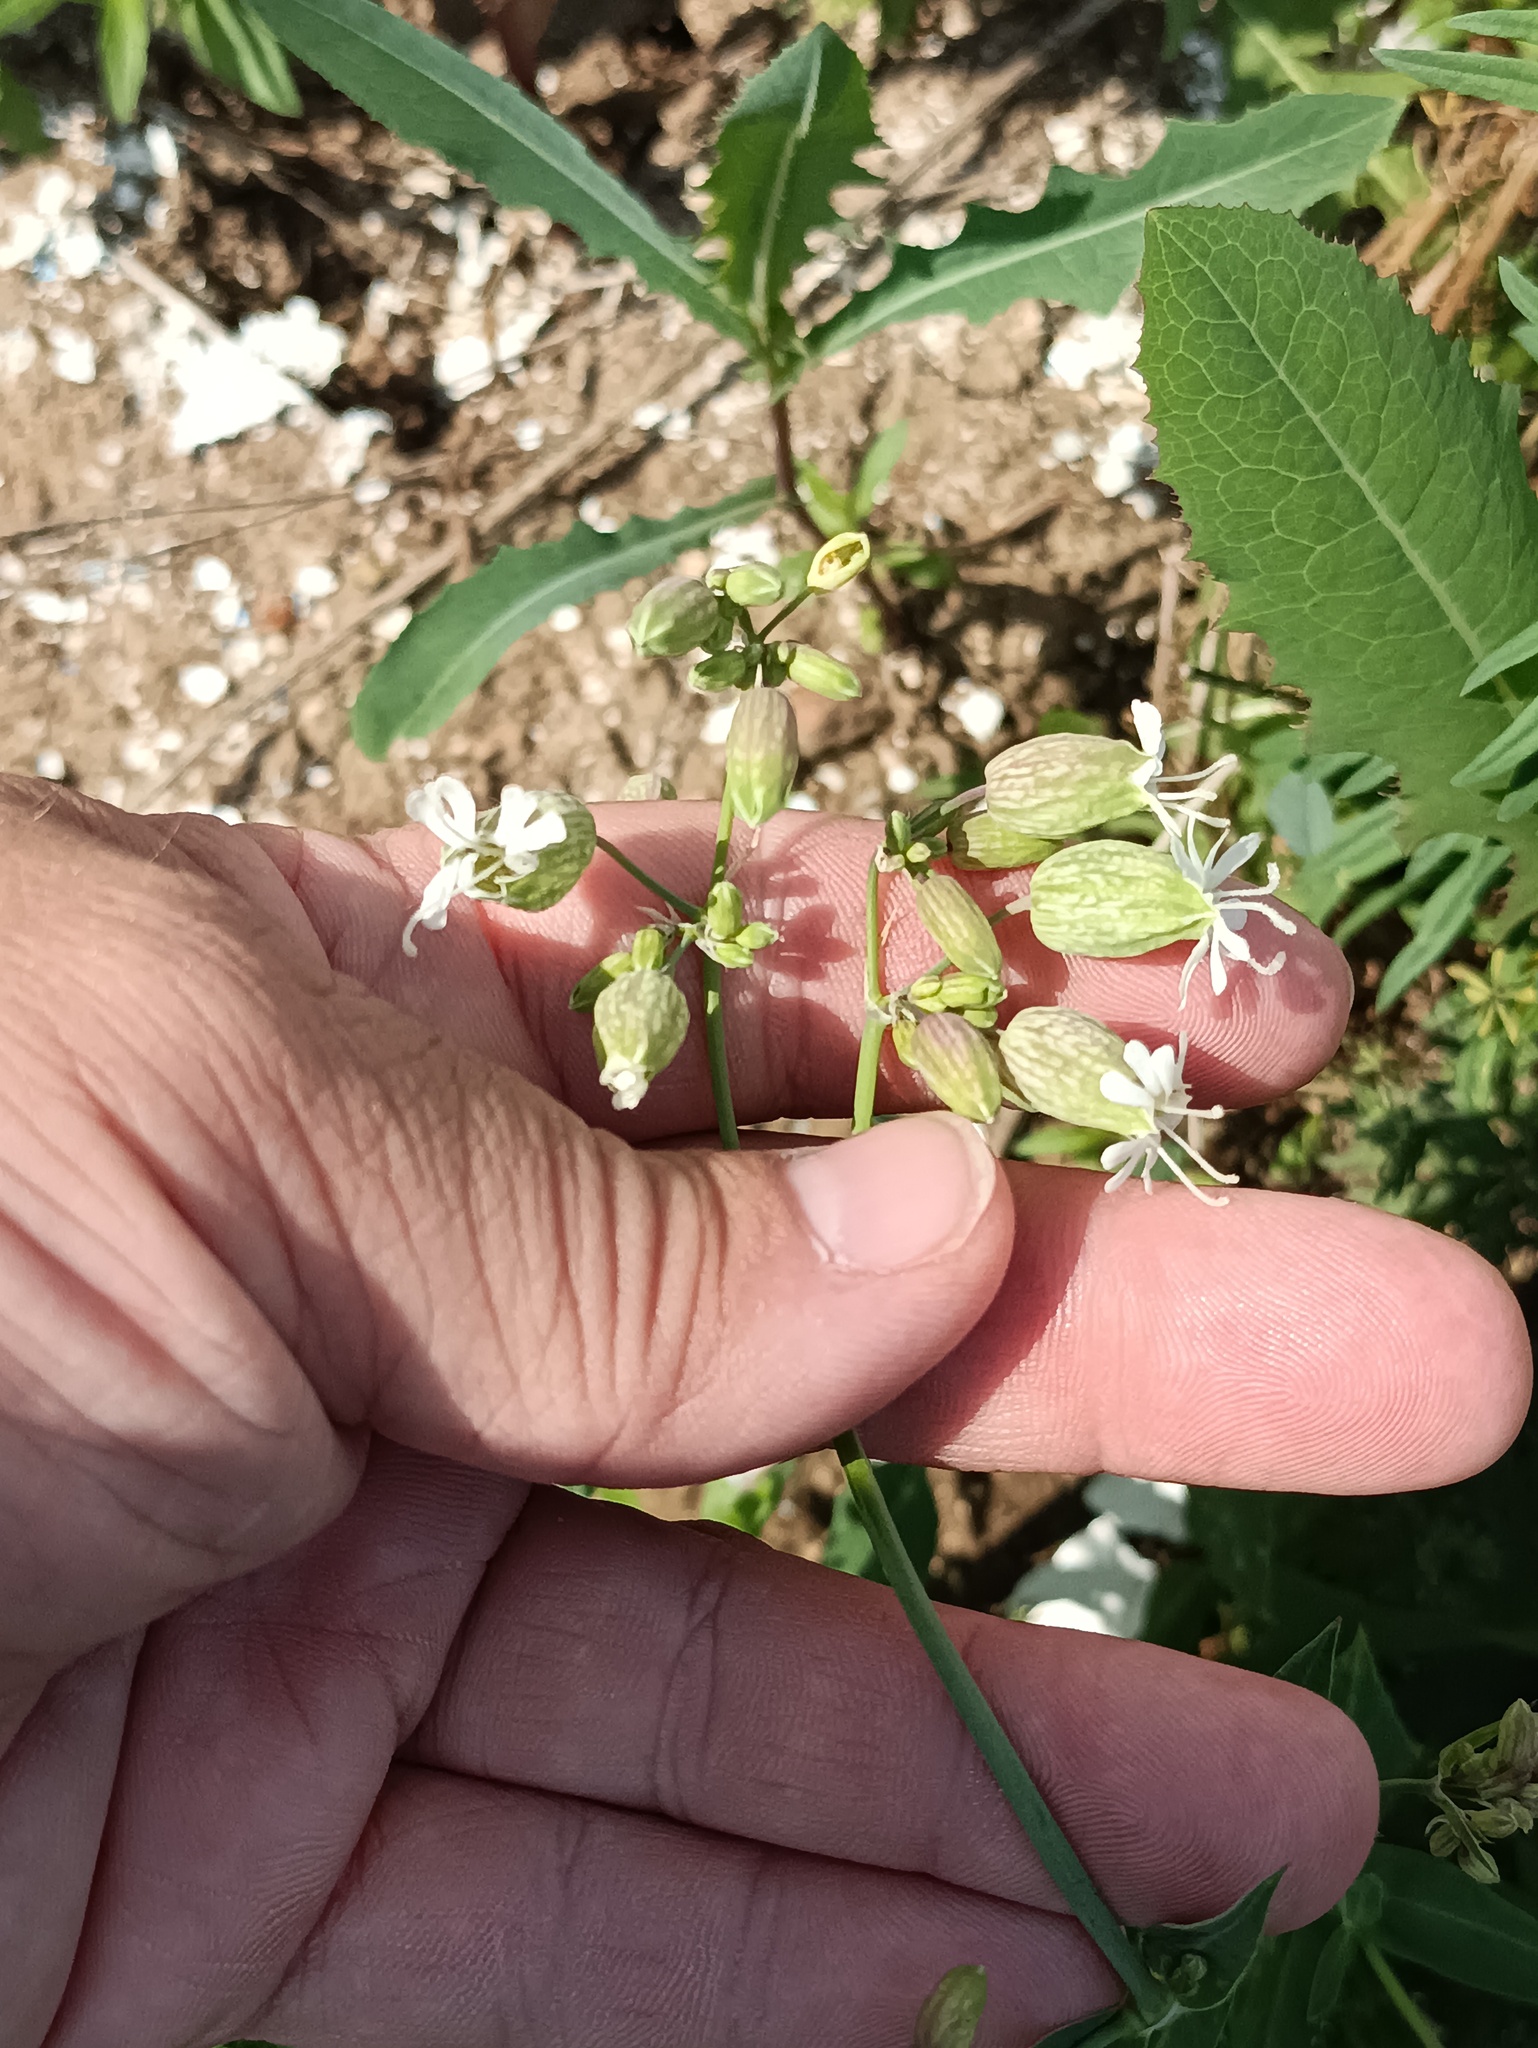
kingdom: Plantae
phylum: Tracheophyta
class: Magnoliopsida
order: Caryophyllales
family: Caryophyllaceae
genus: Silene
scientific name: Silene vulgaris
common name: Bladder campion
